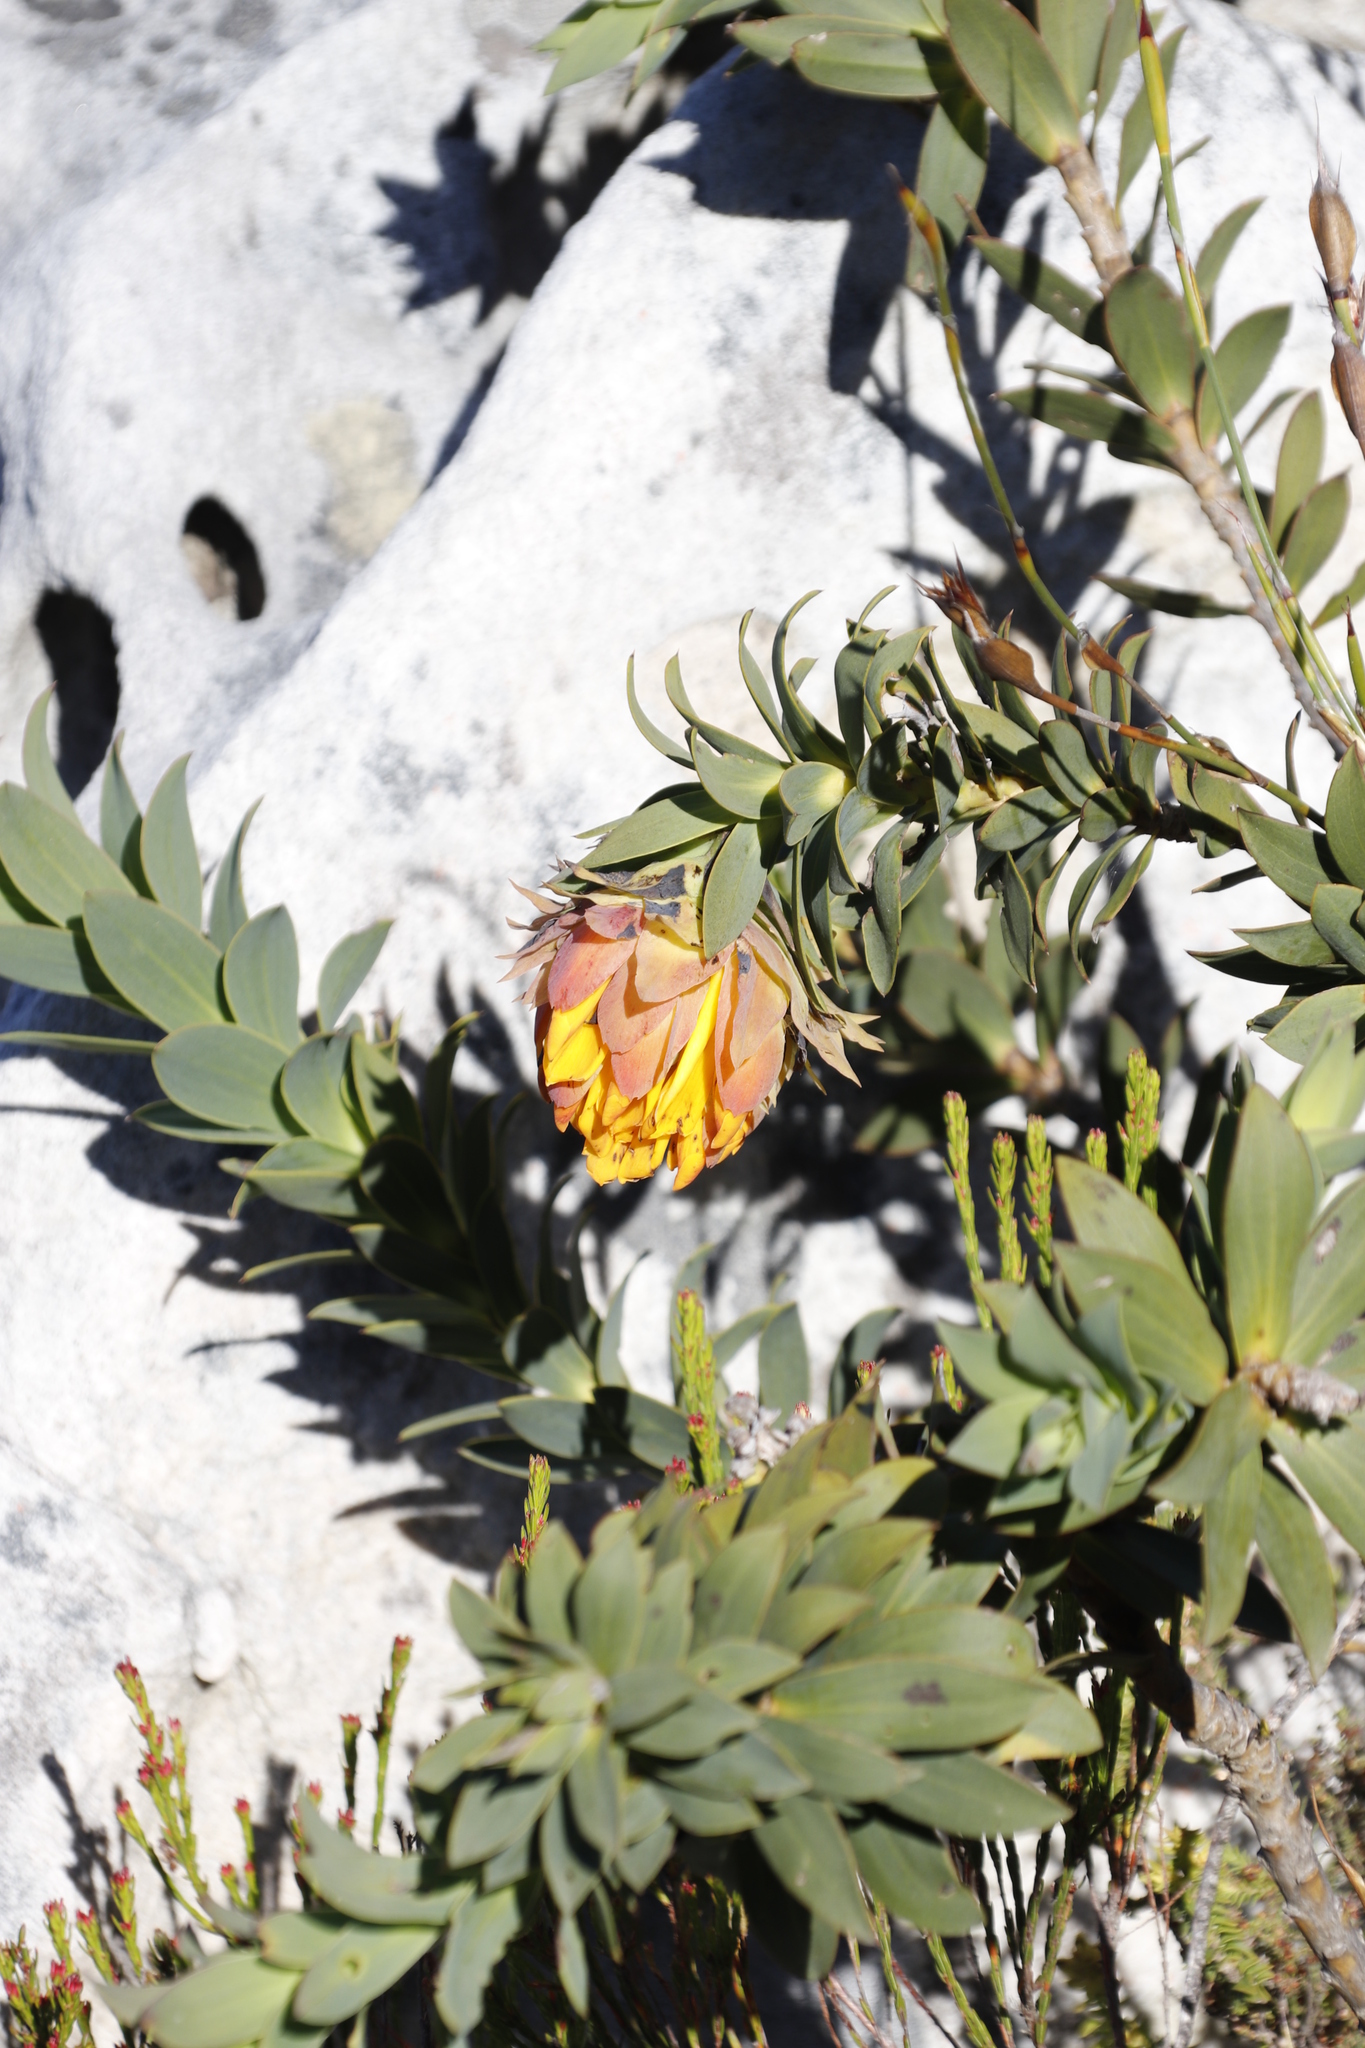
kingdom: Plantae
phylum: Tracheophyta
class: Magnoliopsida
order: Fabales
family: Fabaceae
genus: Liparia
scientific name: Liparia splendens
